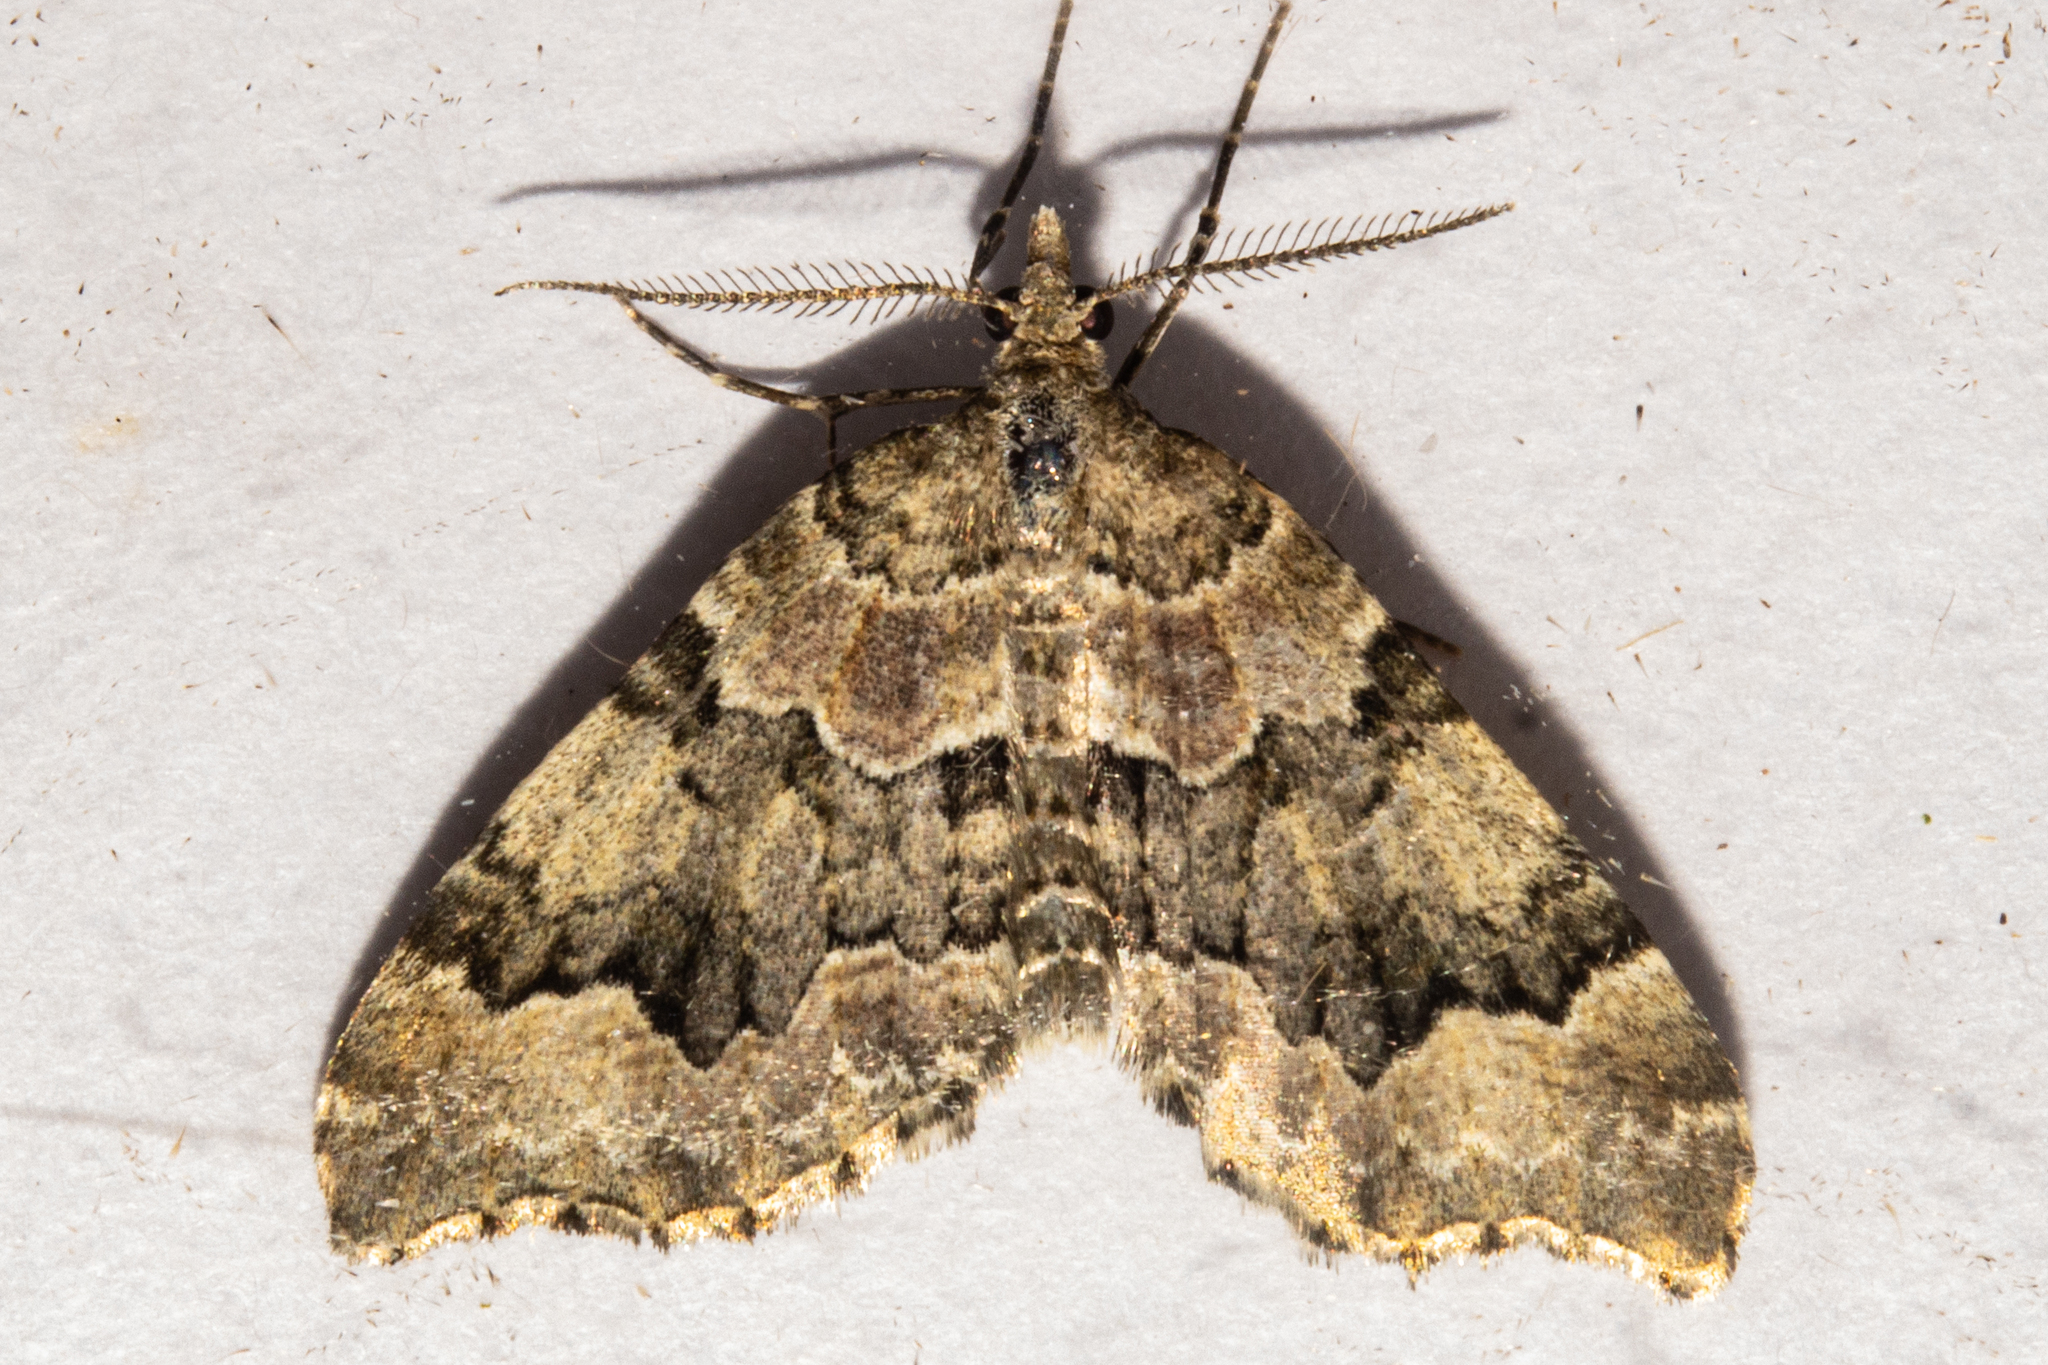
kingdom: Animalia
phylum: Arthropoda
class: Insecta
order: Lepidoptera
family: Geometridae
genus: Helastia
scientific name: Helastia cryptica
